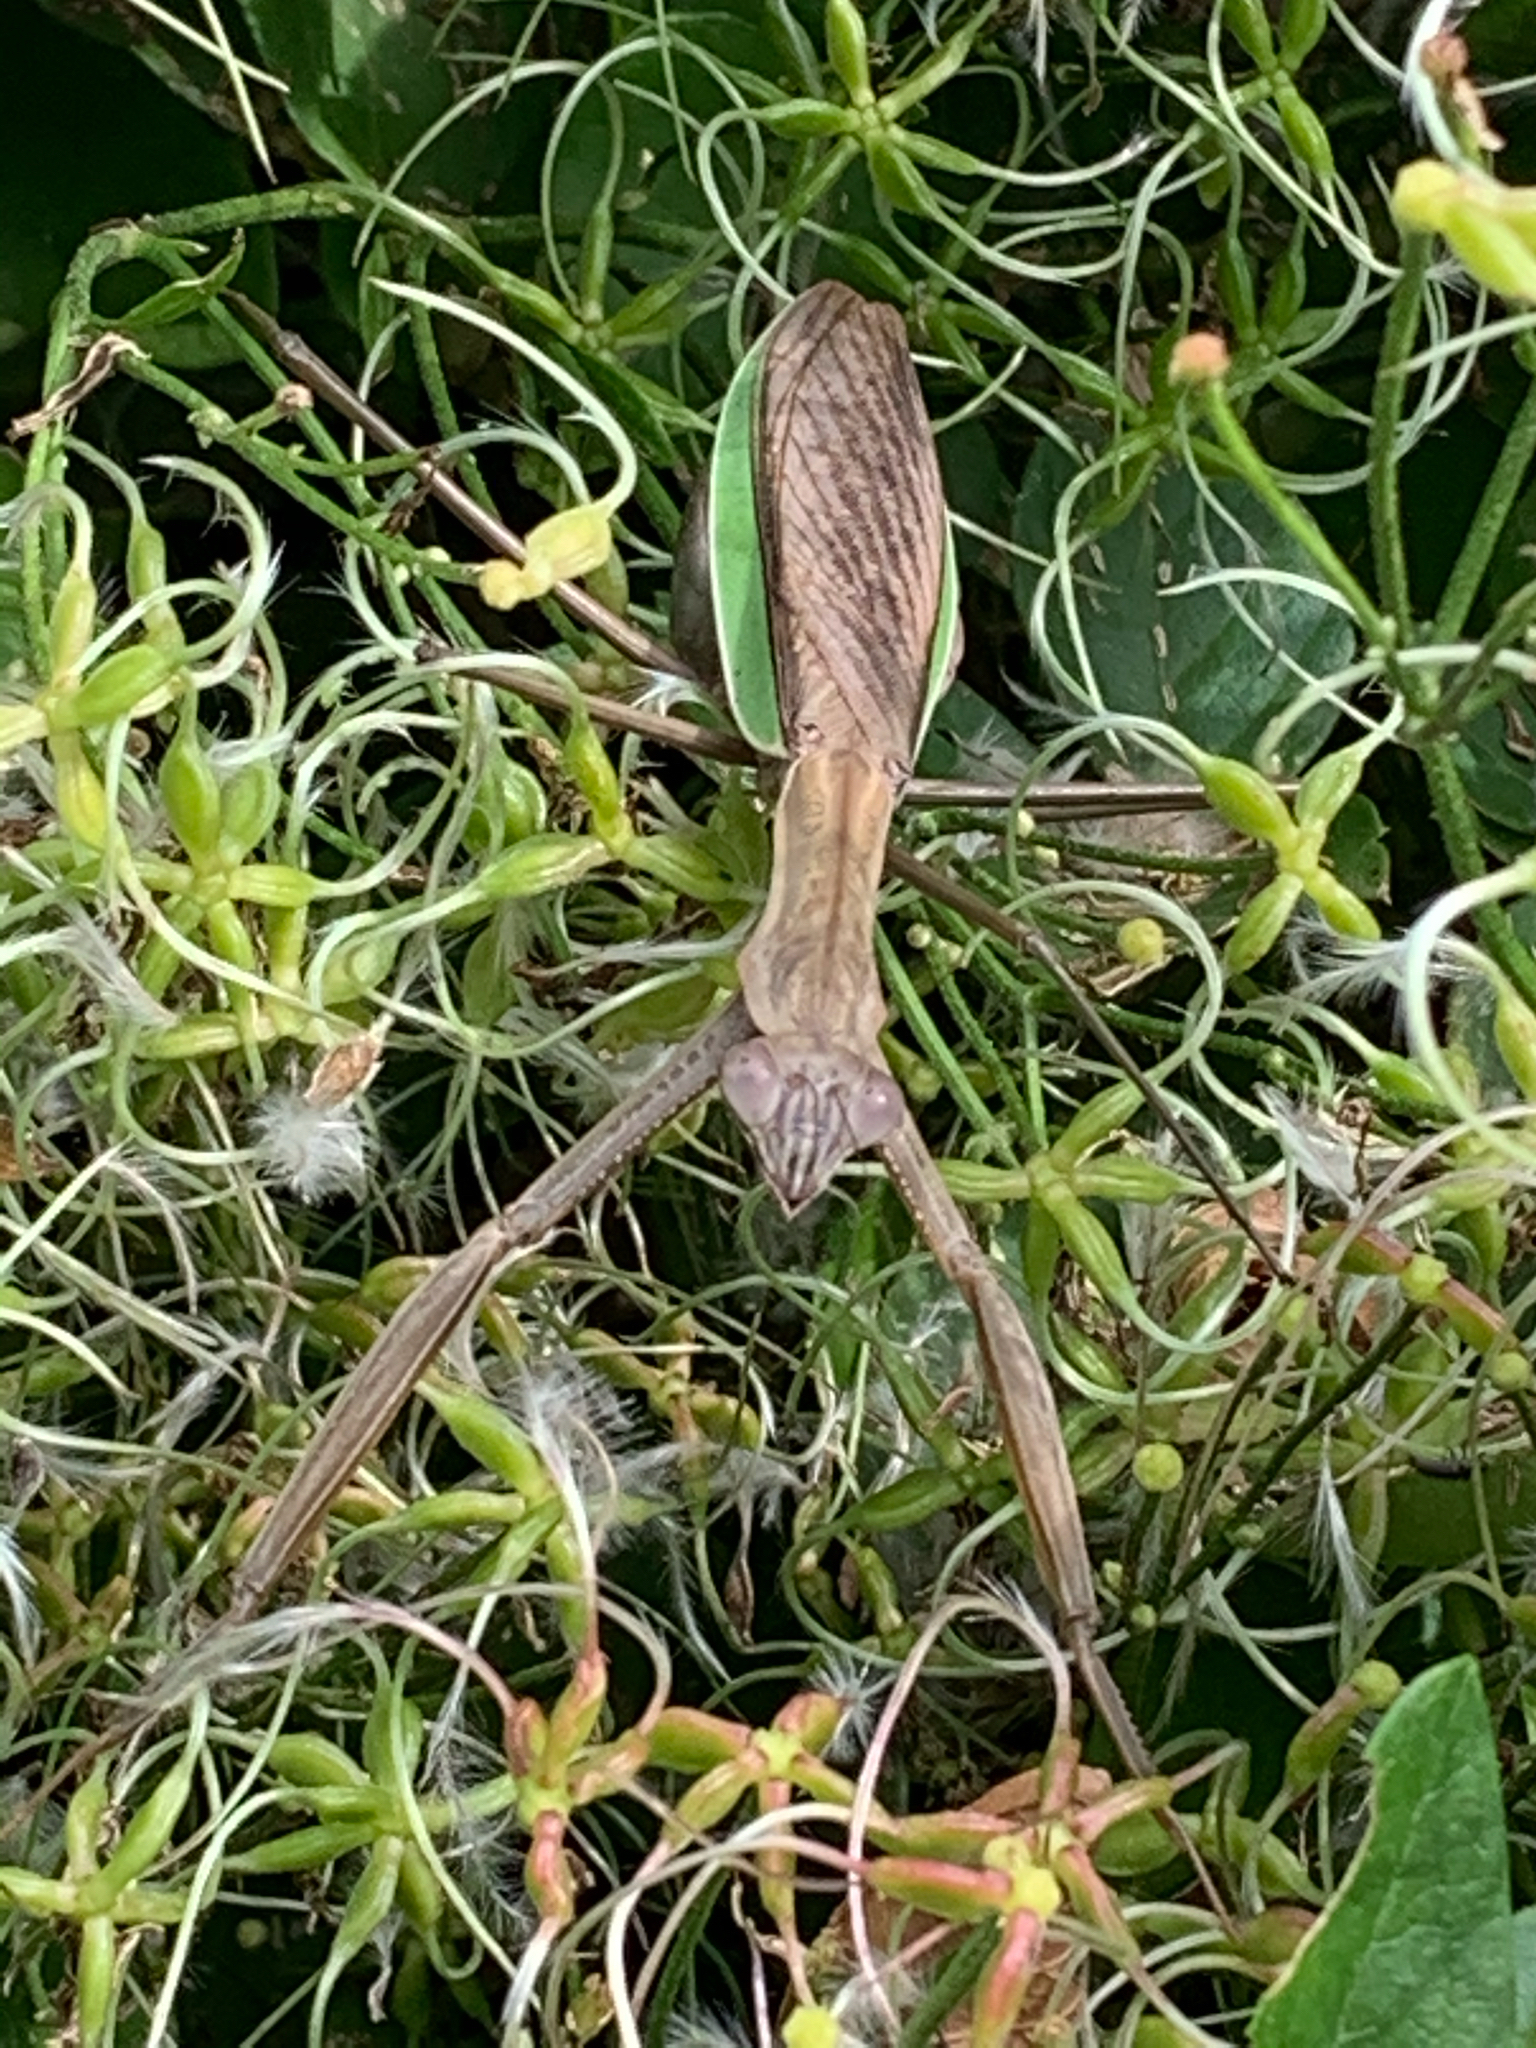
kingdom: Animalia
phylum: Arthropoda
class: Insecta
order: Mantodea
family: Mantidae
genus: Tenodera
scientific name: Tenodera sinensis
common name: Chinese mantis
